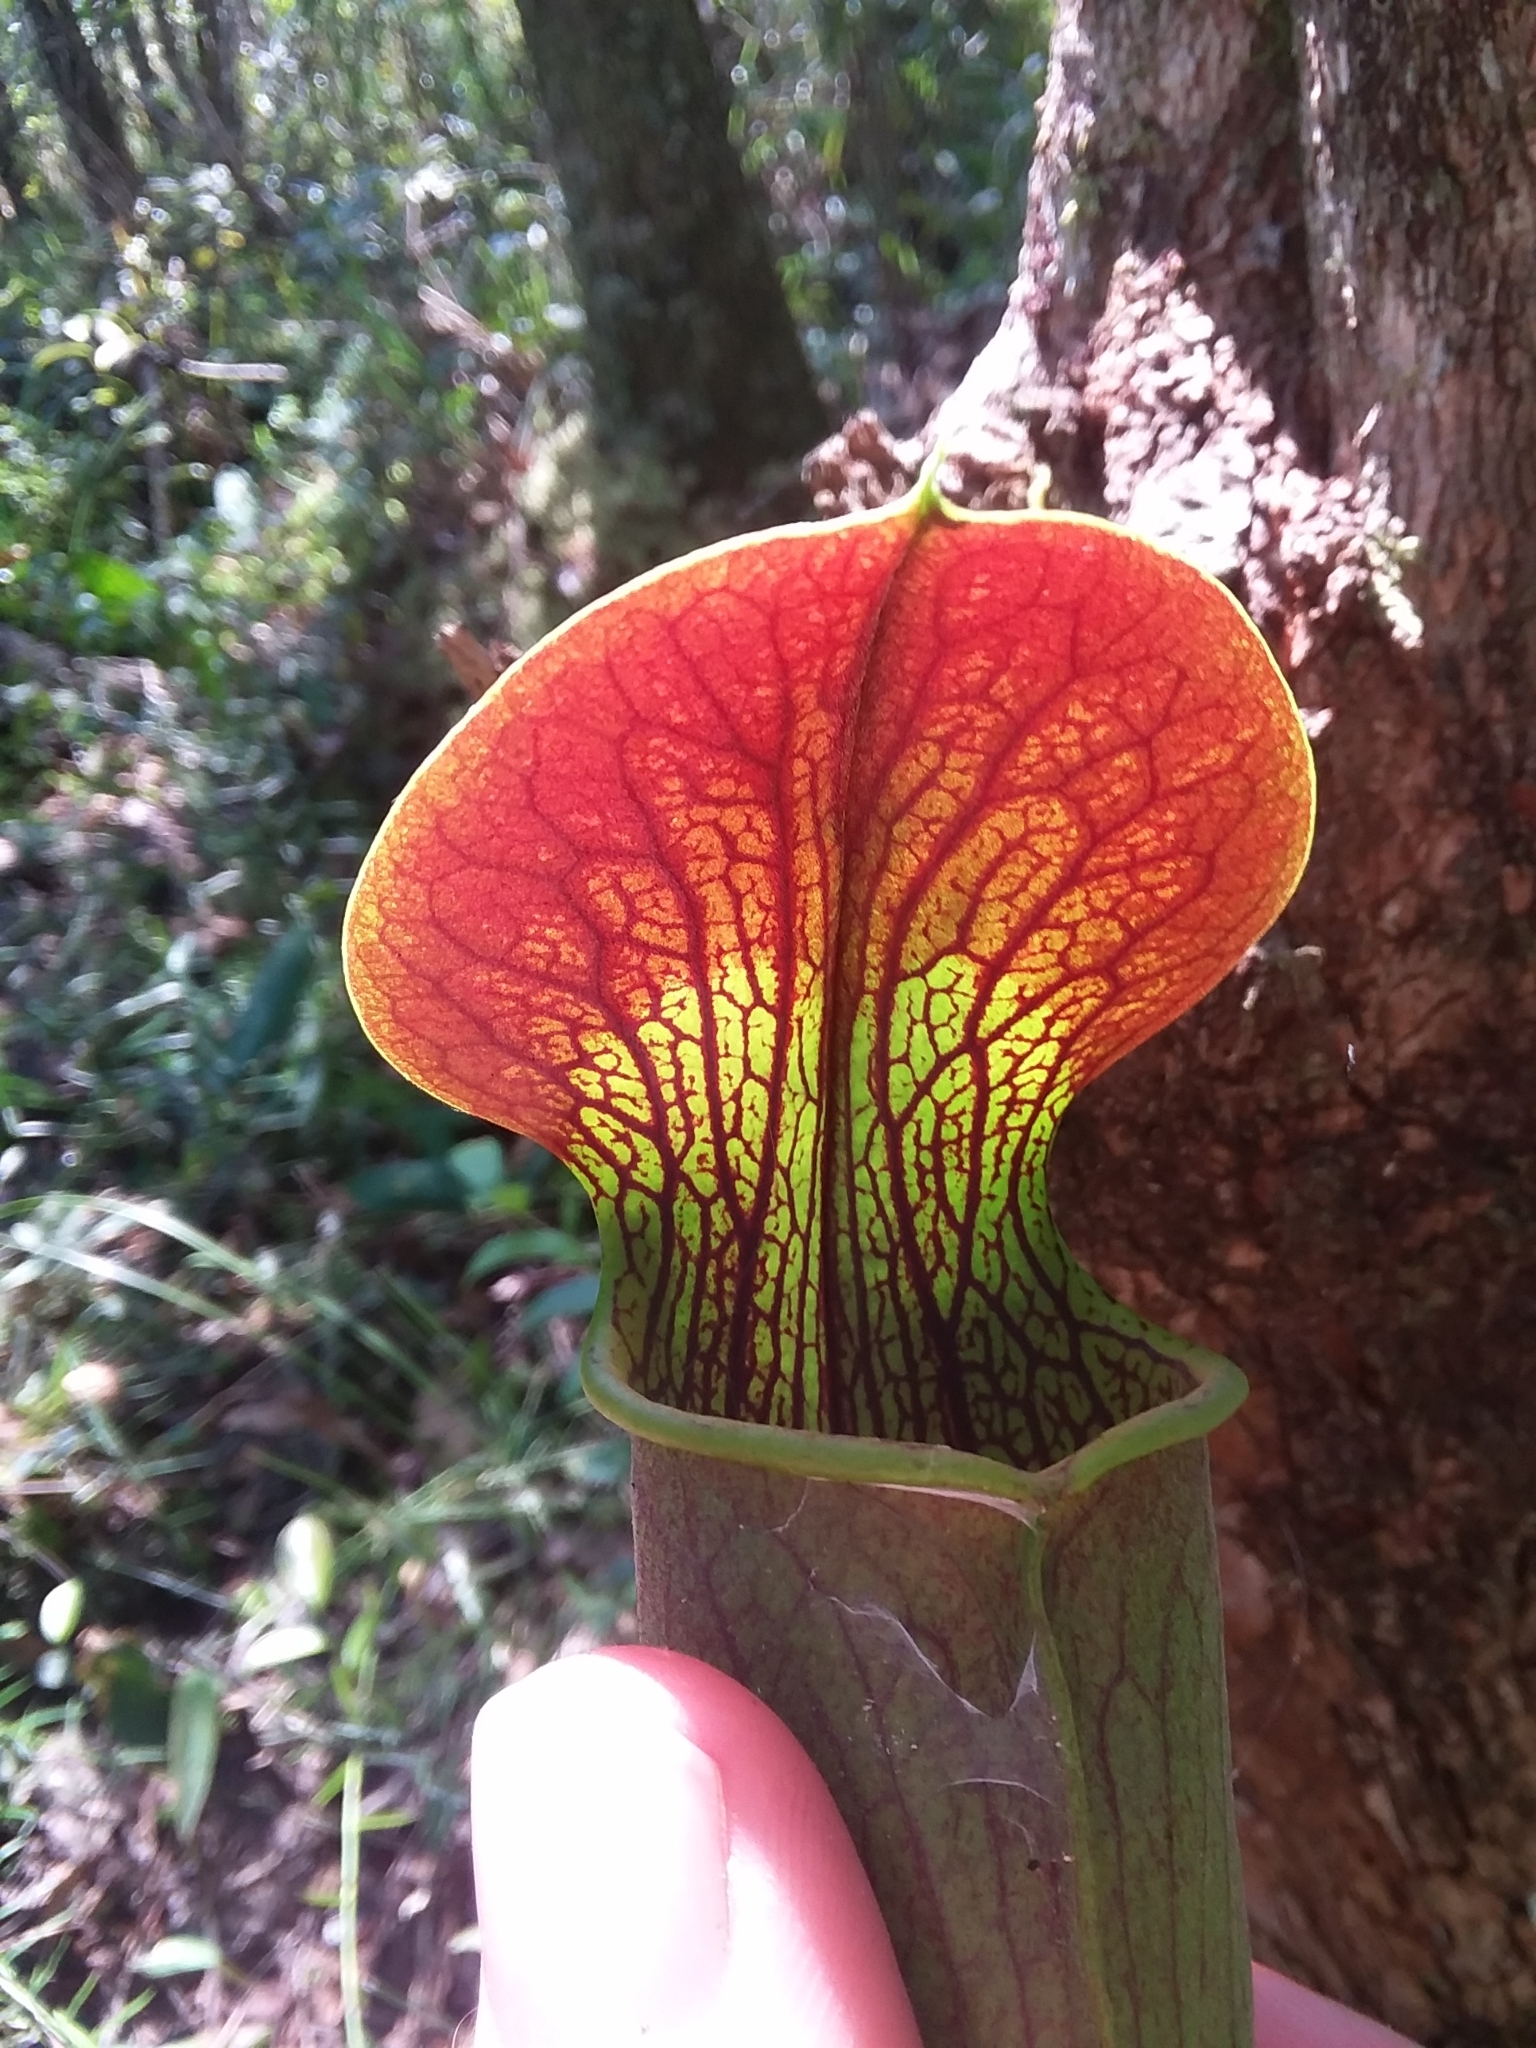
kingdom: Plantae
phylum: Tracheophyta
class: Magnoliopsida
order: Ericales
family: Sarraceniaceae
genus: Sarracenia
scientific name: Sarracenia alata
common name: Yellow trumpets
